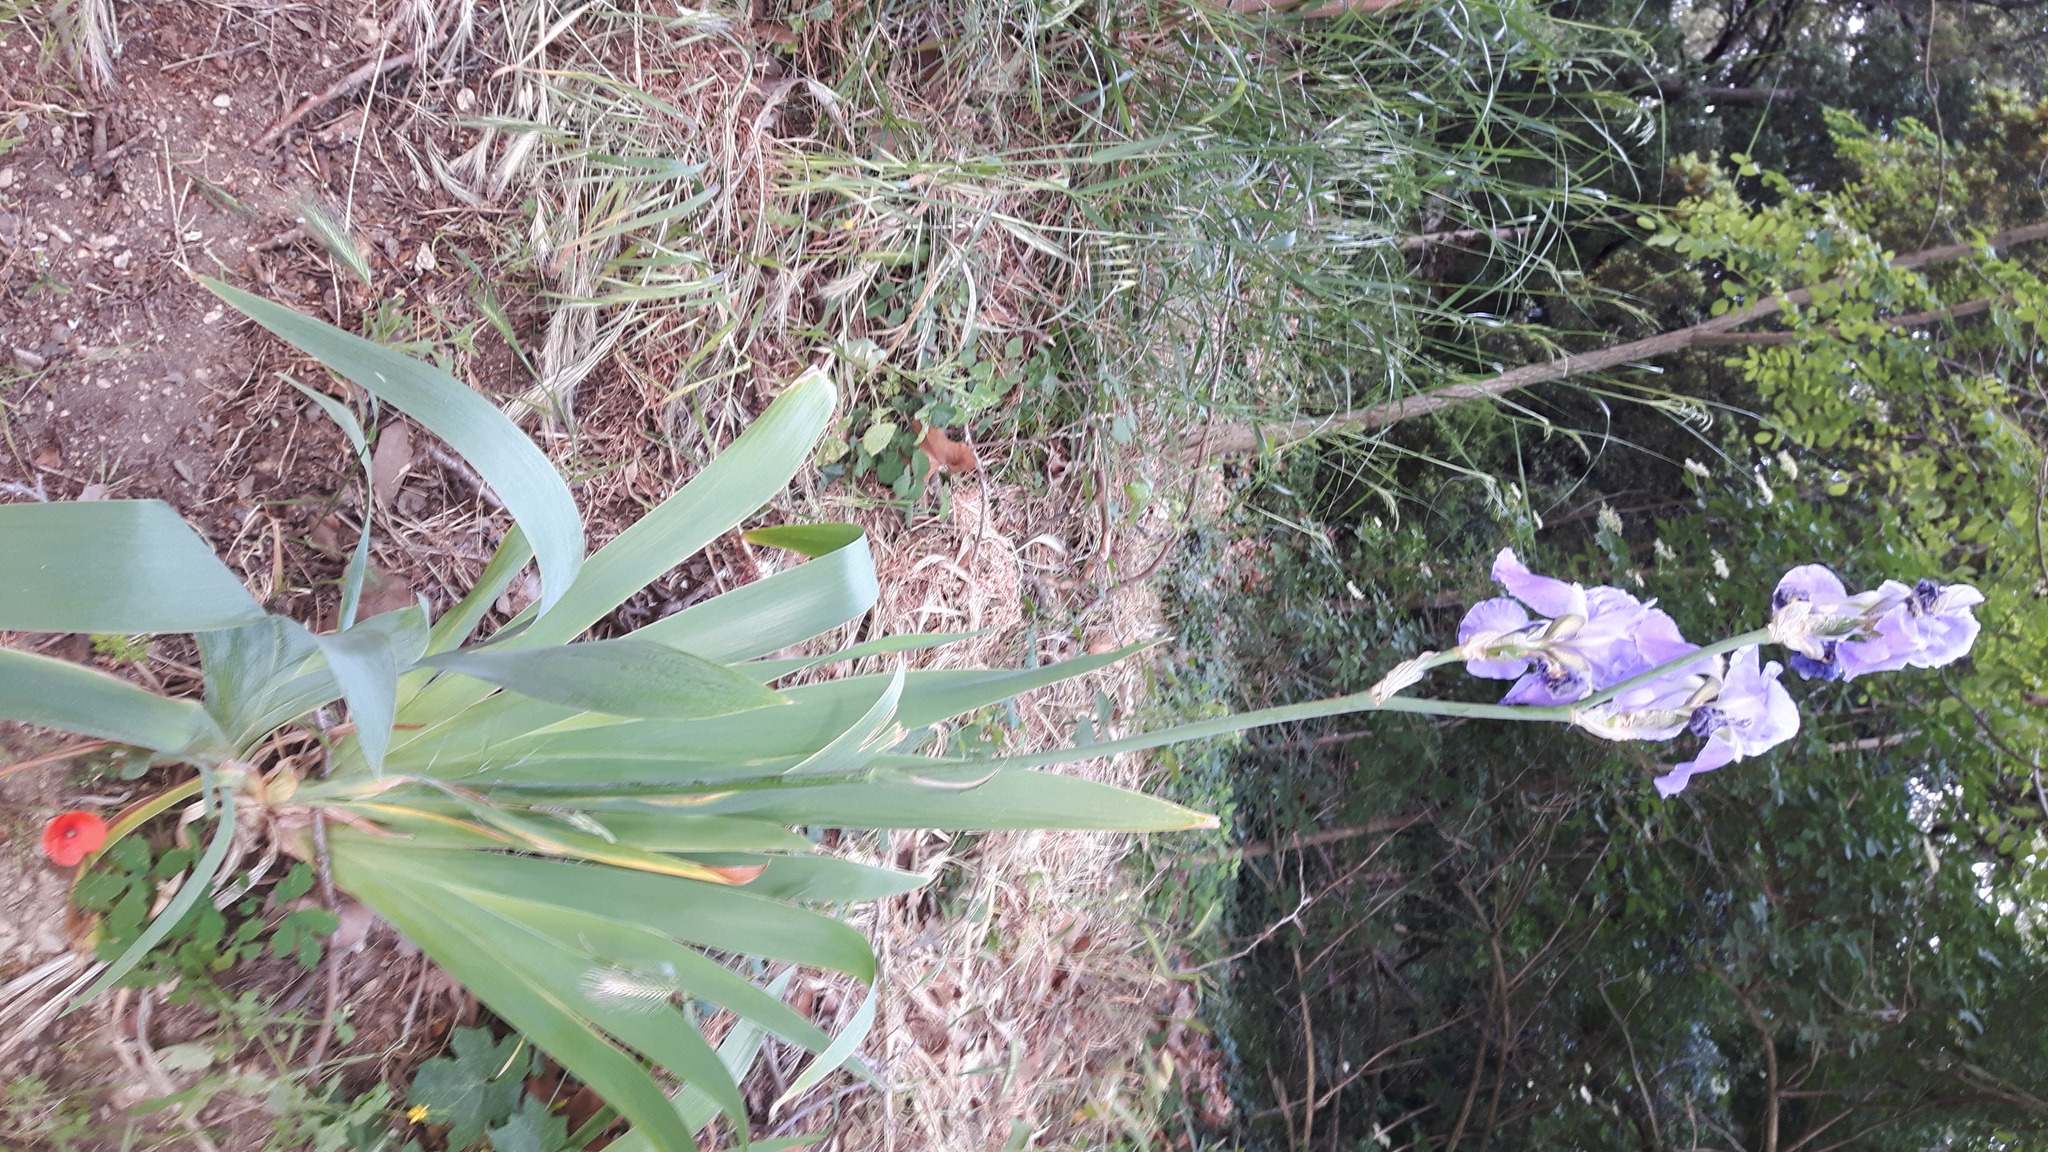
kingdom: Plantae
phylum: Tracheophyta
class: Liliopsida
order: Asparagales
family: Iridaceae
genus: Iris
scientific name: Iris pallida
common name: Sweet iris
